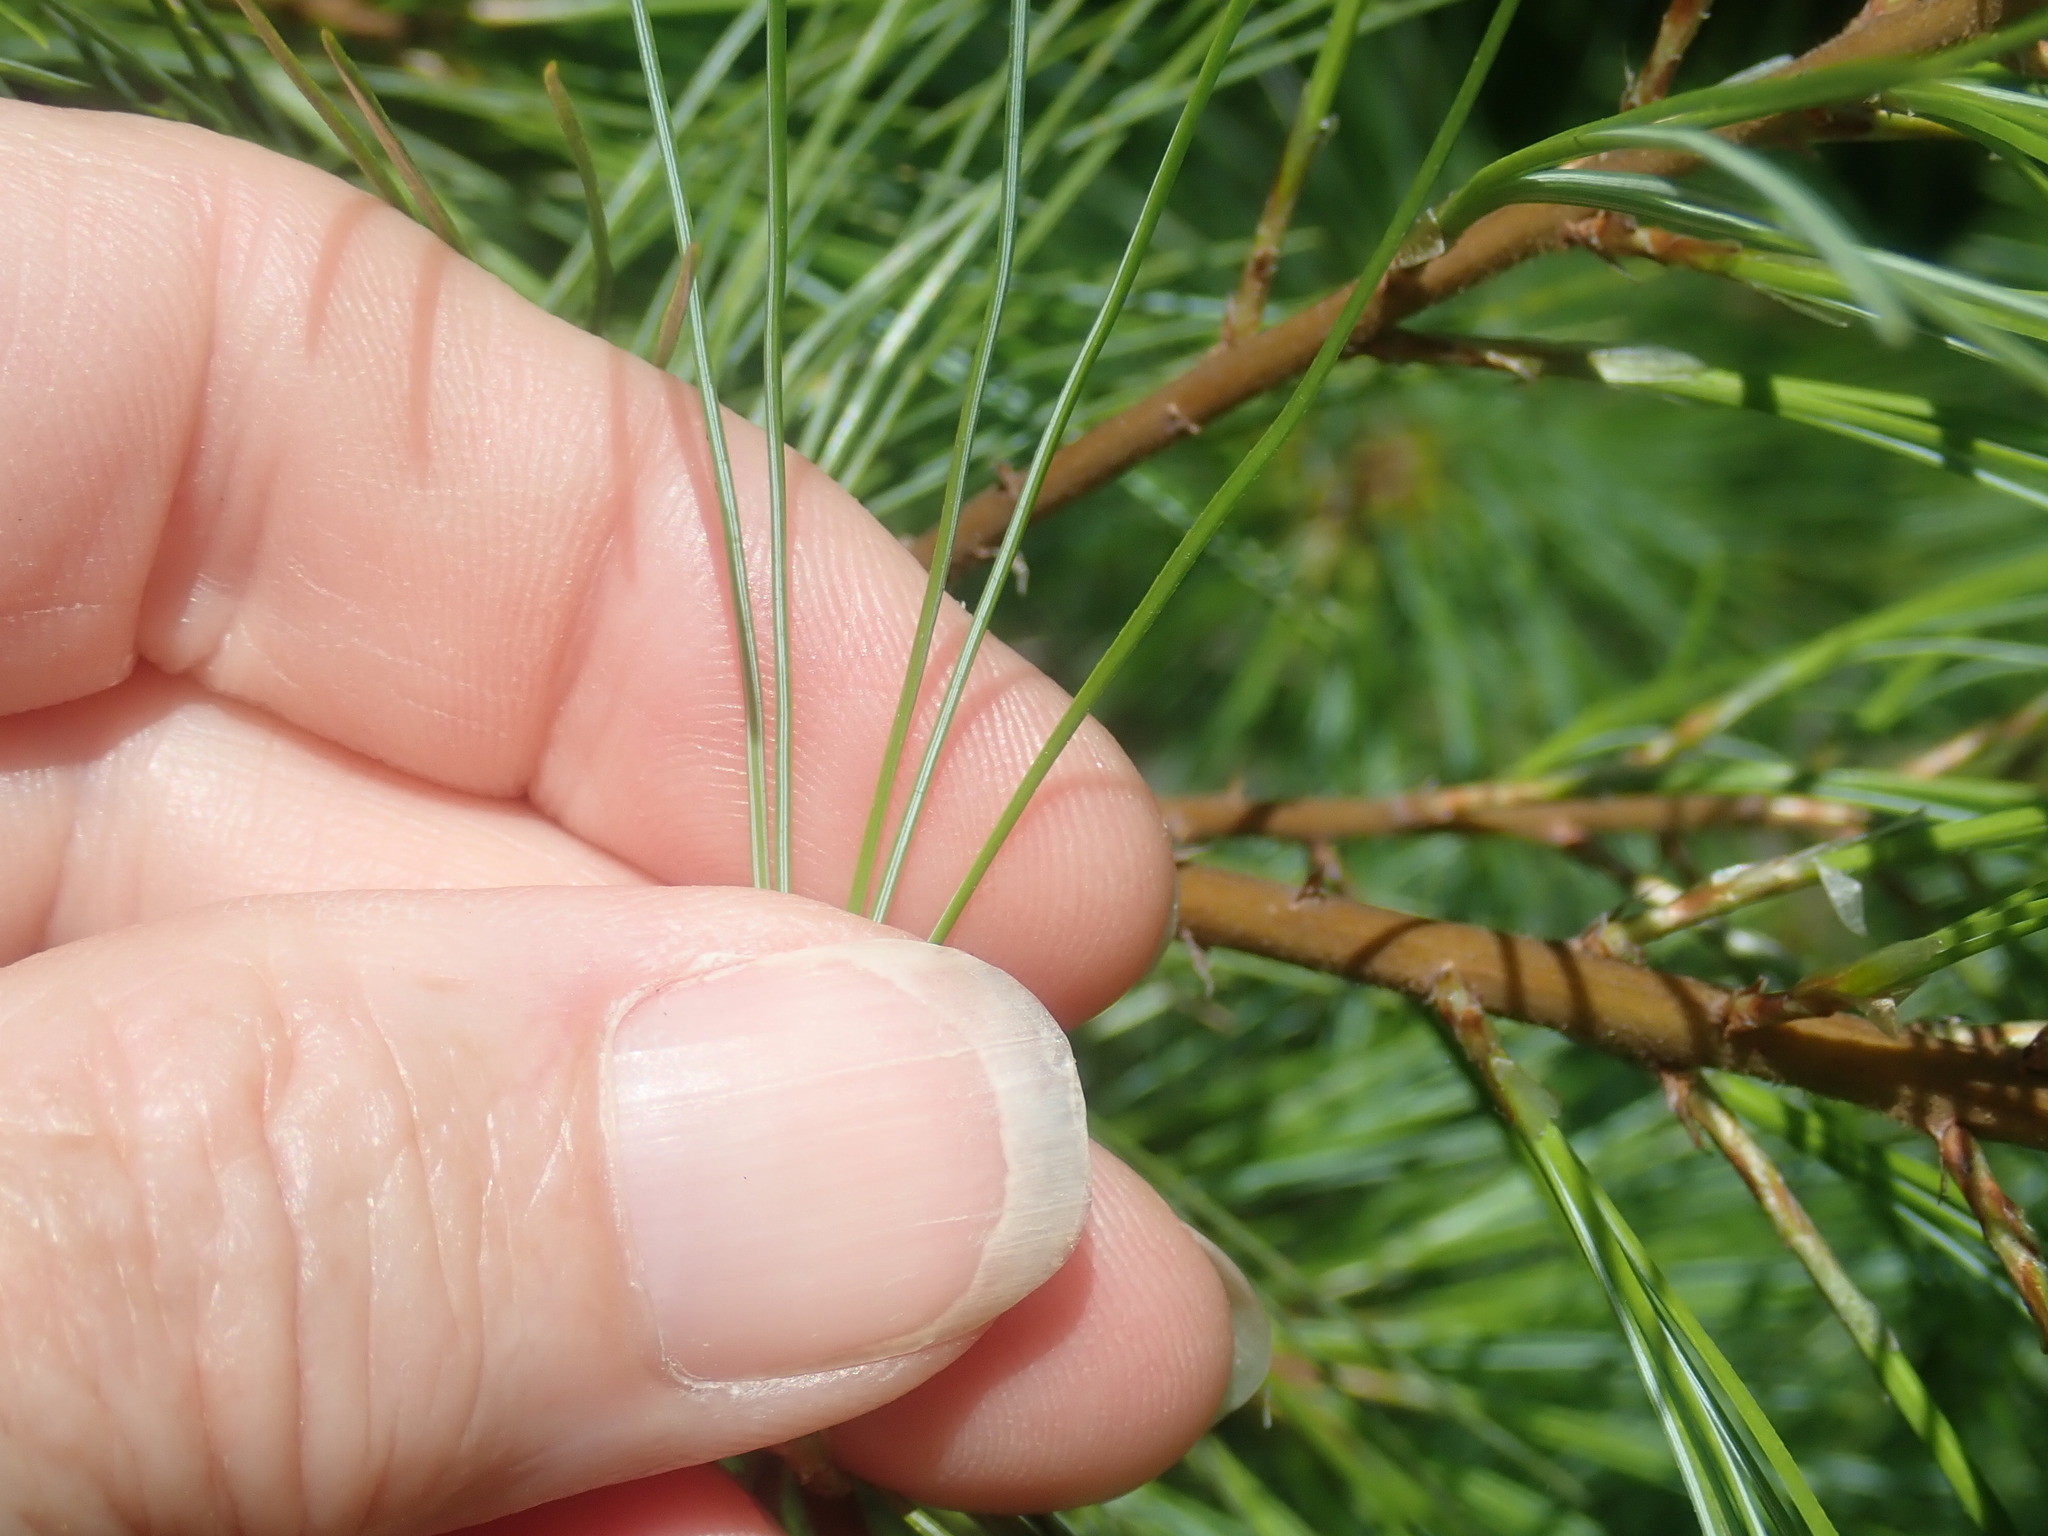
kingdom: Plantae
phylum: Tracheophyta
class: Pinopsida
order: Pinales
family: Pinaceae
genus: Pinus
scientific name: Pinus strobus
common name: Weymouth pine
